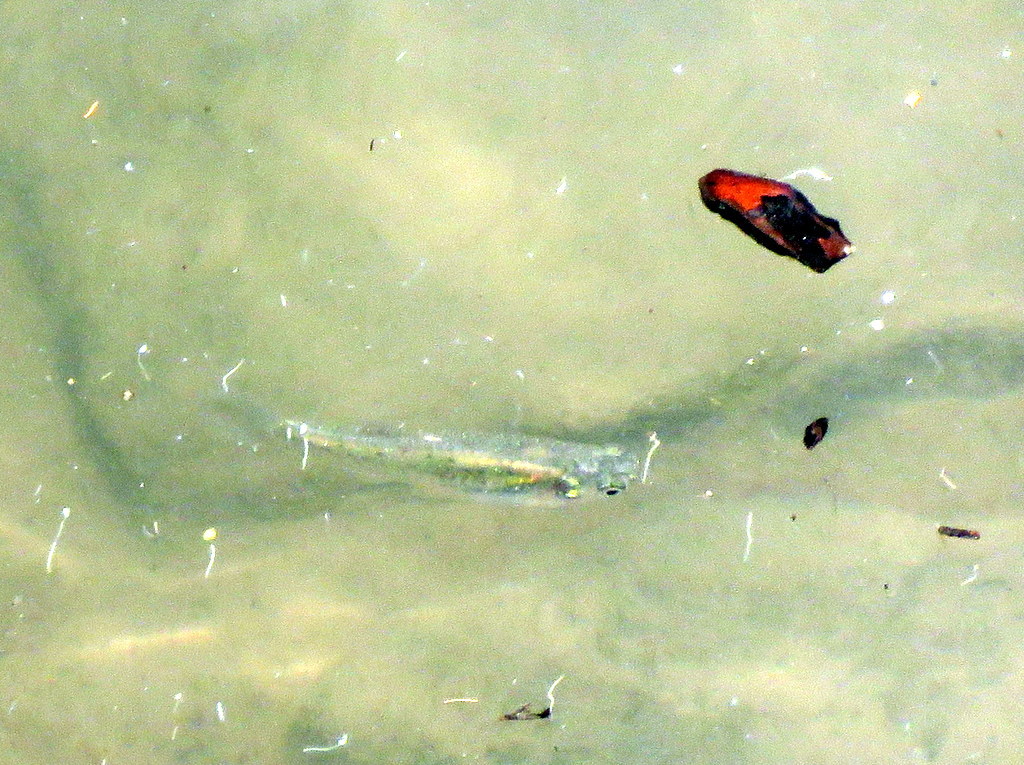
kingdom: Animalia
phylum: Chordata
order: Cyprinodontiformes
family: Anablepidae
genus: Jenynsia
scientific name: Jenynsia lineata
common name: Onesided livebearer
